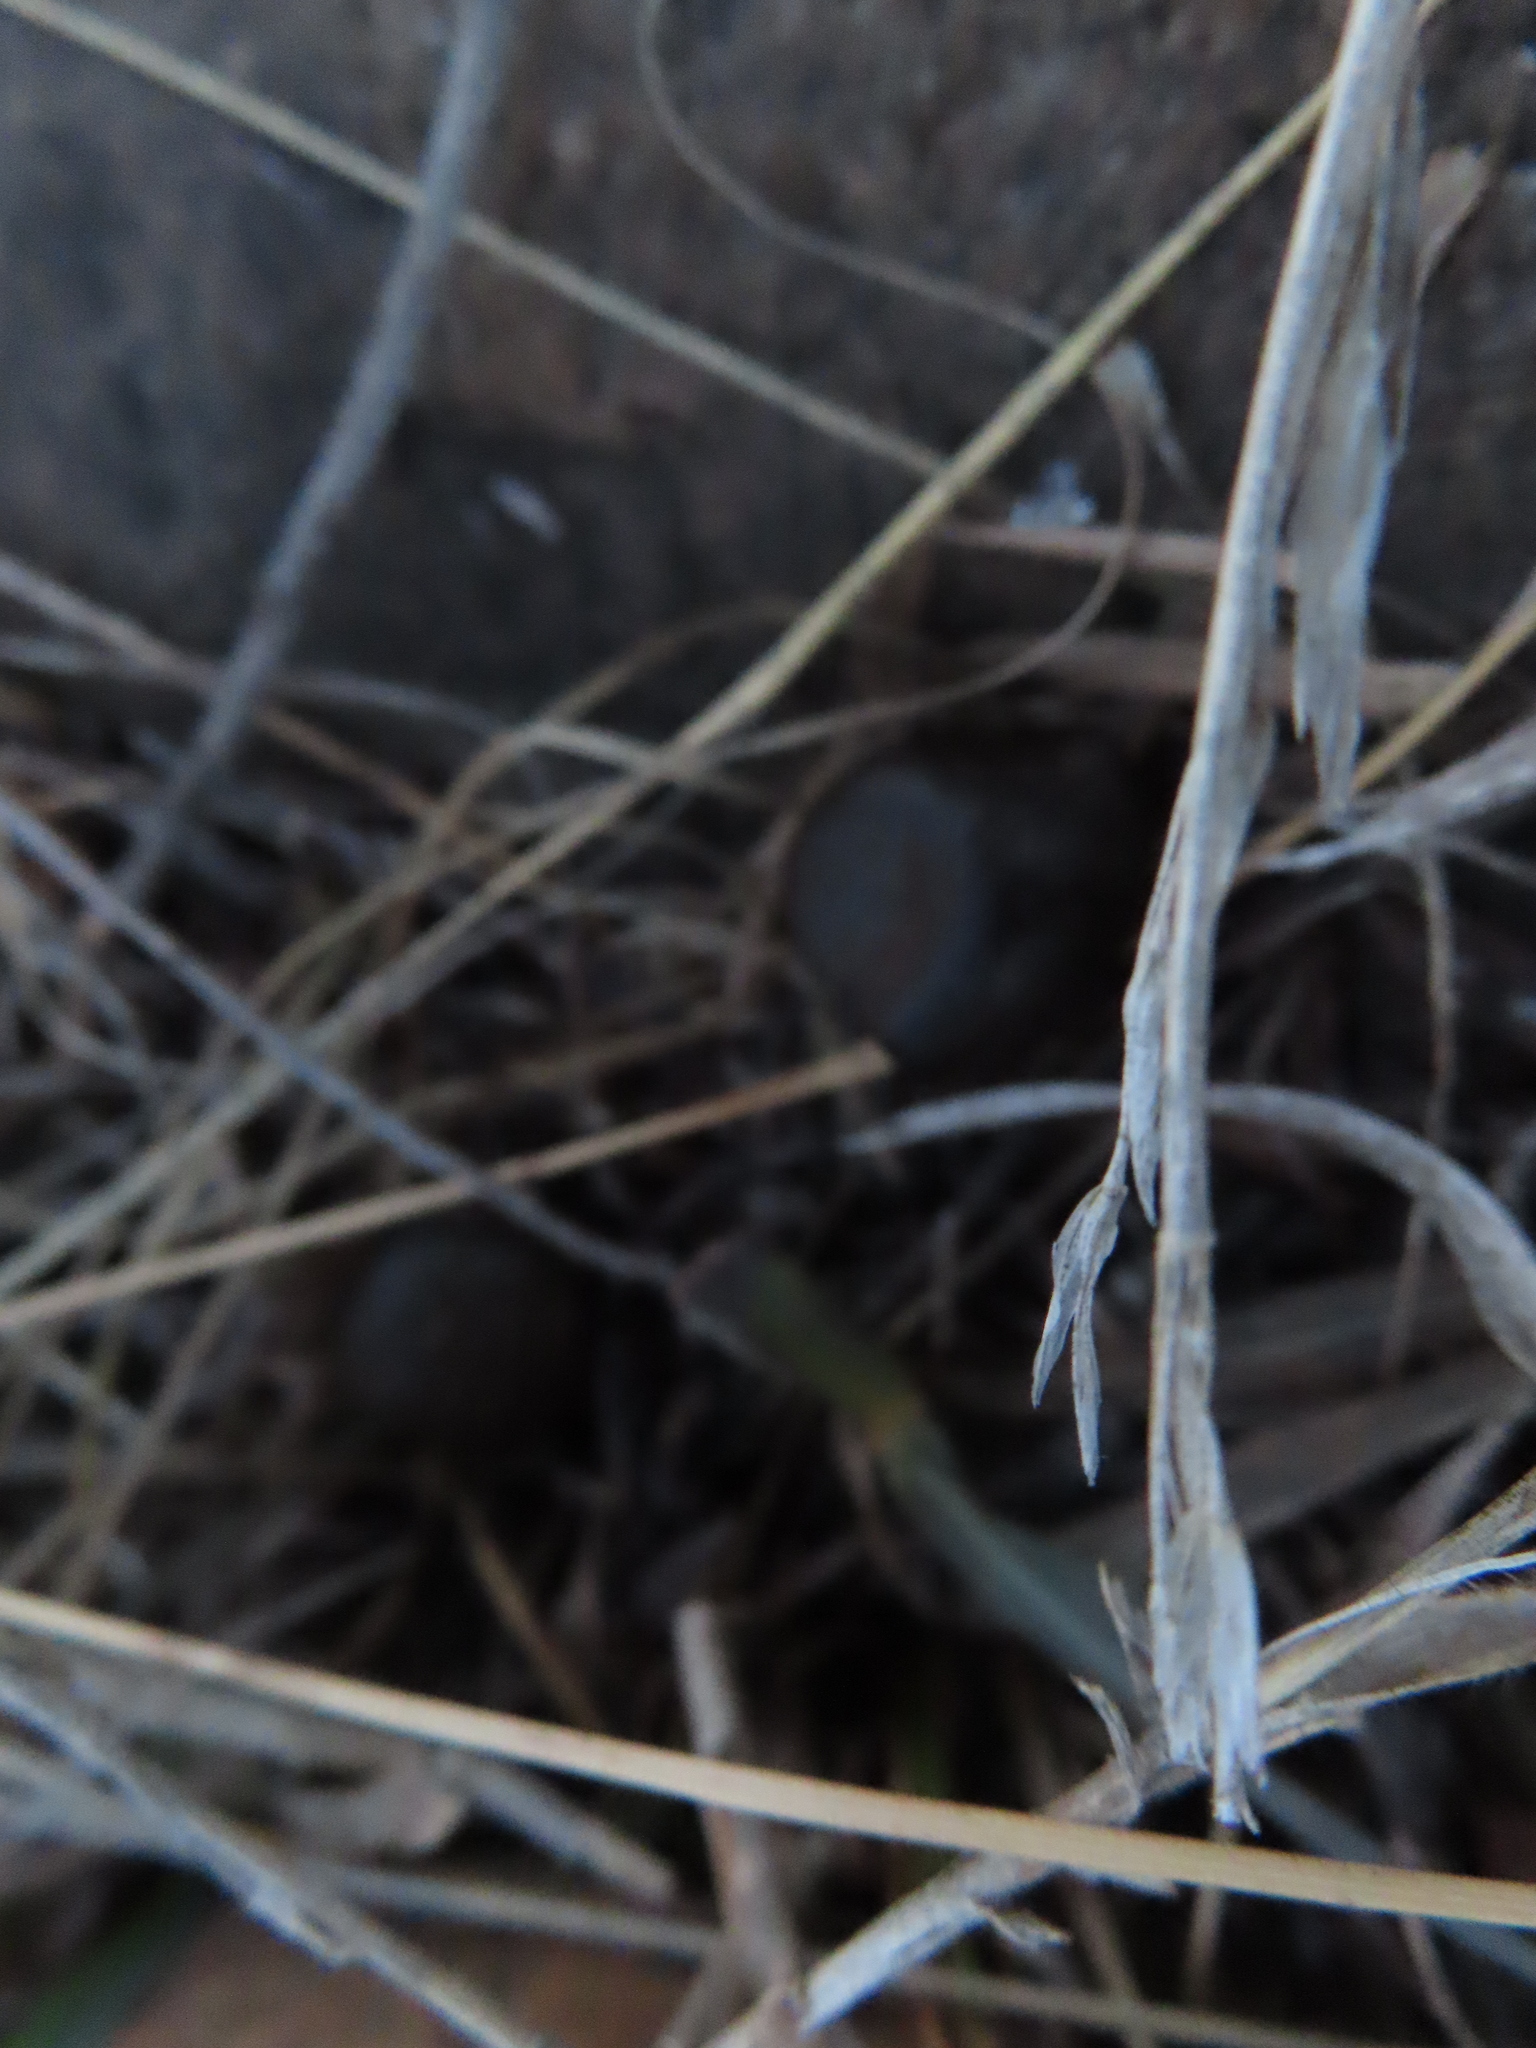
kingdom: Animalia
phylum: Chordata
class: Mammalia
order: Artiodactyla
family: Antilocapridae
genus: Antilocapra
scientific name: Antilocapra americana
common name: Pronghorn
